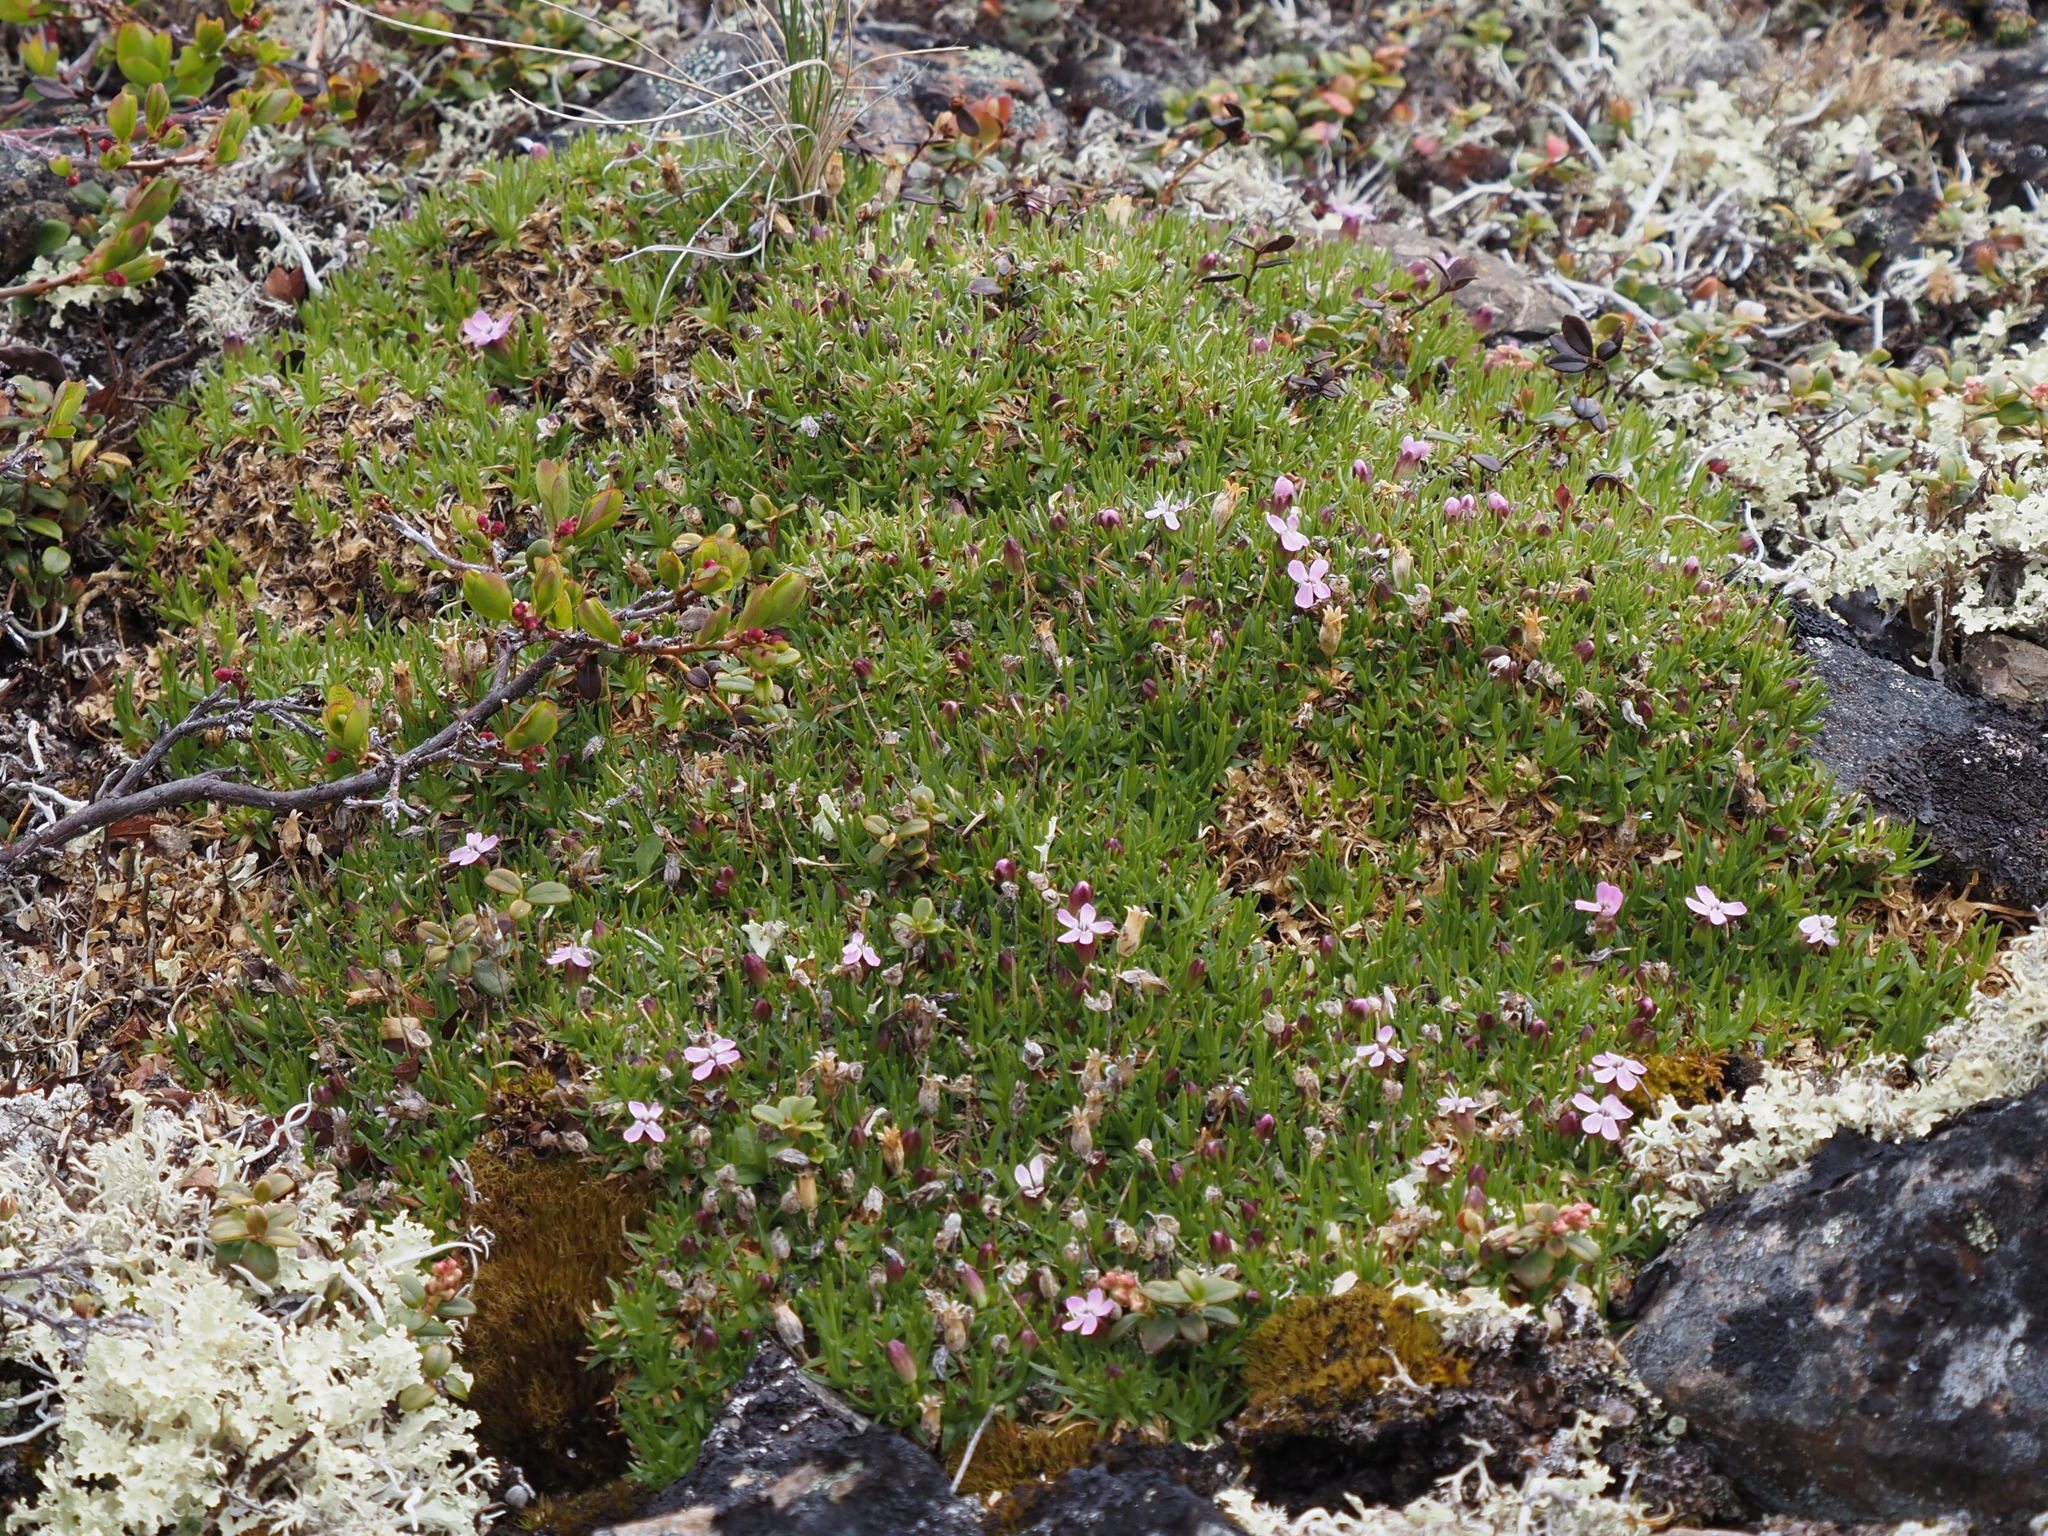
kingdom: Plantae
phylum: Tracheophyta
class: Magnoliopsida
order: Caryophyllales
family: Caryophyllaceae
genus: Silene
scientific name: Silene acaulis
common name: Moss campion
